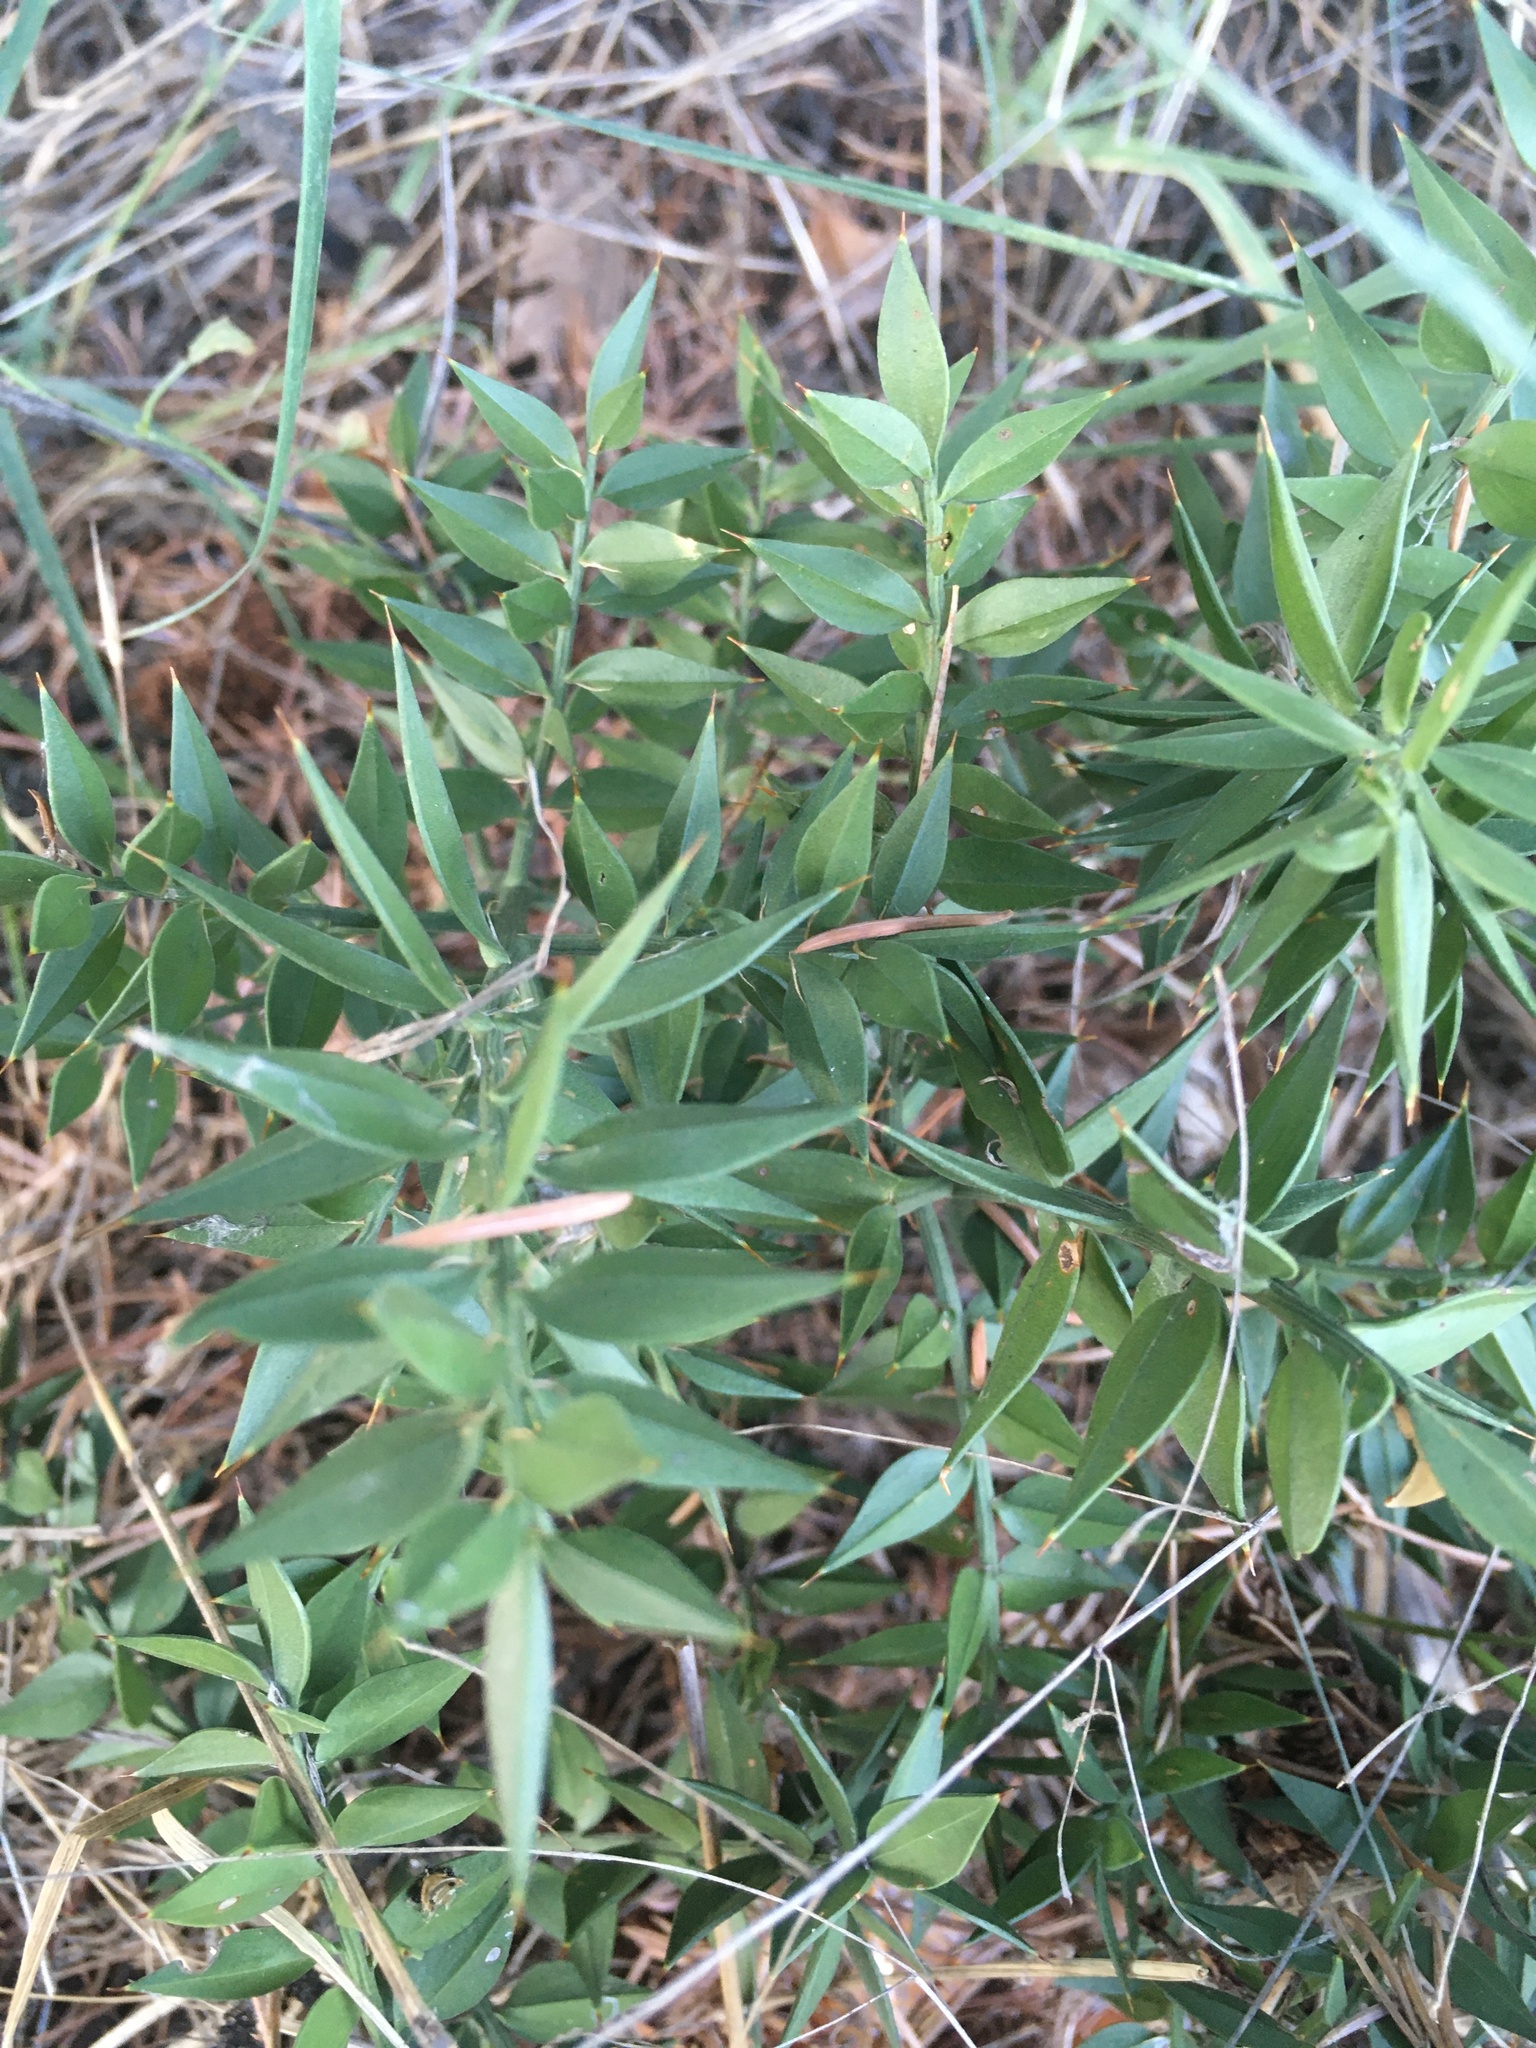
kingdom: Plantae
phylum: Tracheophyta
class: Liliopsida
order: Asparagales
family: Asparagaceae
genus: Ruscus
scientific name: Ruscus aculeatus
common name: Butcher's-broom
